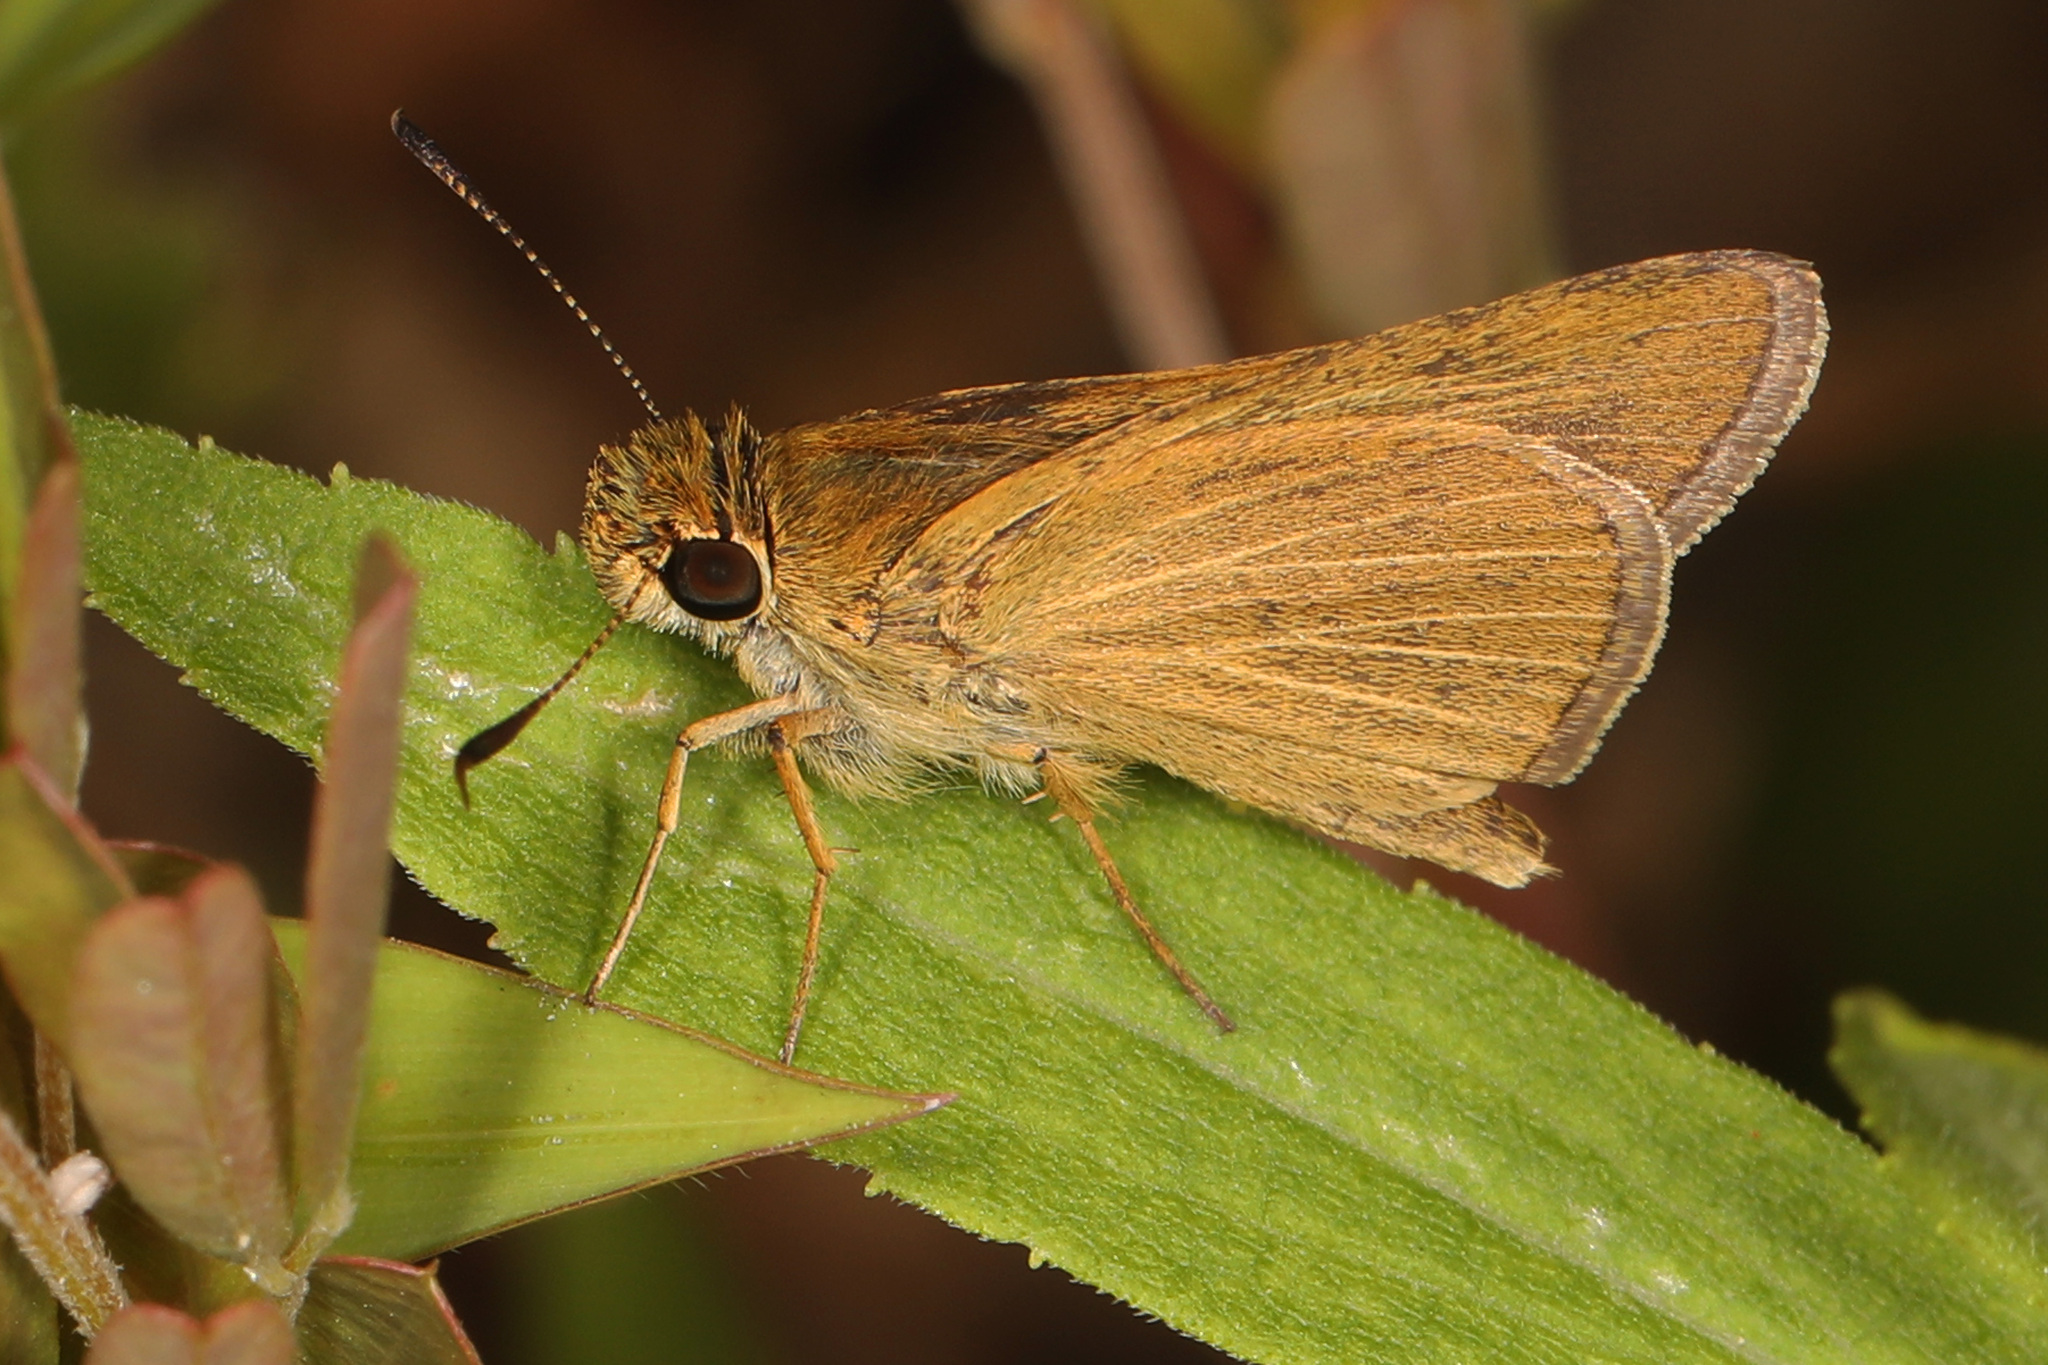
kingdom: Animalia
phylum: Arthropoda
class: Insecta
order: Lepidoptera
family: Hesperiidae
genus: Nastra
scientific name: Nastra lherminier
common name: Swarthy skipper
